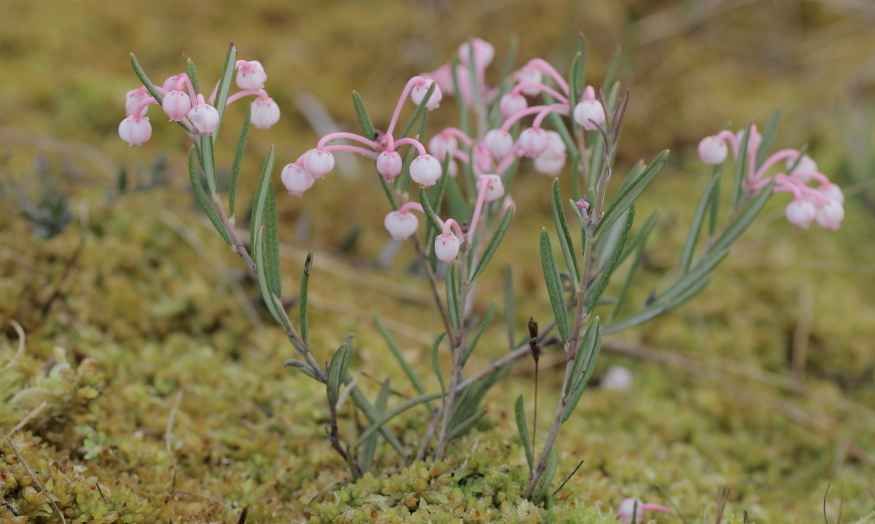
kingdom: Plantae
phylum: Tracheophyta
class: Magnoliopsida
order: Ericales
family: Ericaceae
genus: Andromeda
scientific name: Andromeda polifolia
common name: Bog-rosemary
